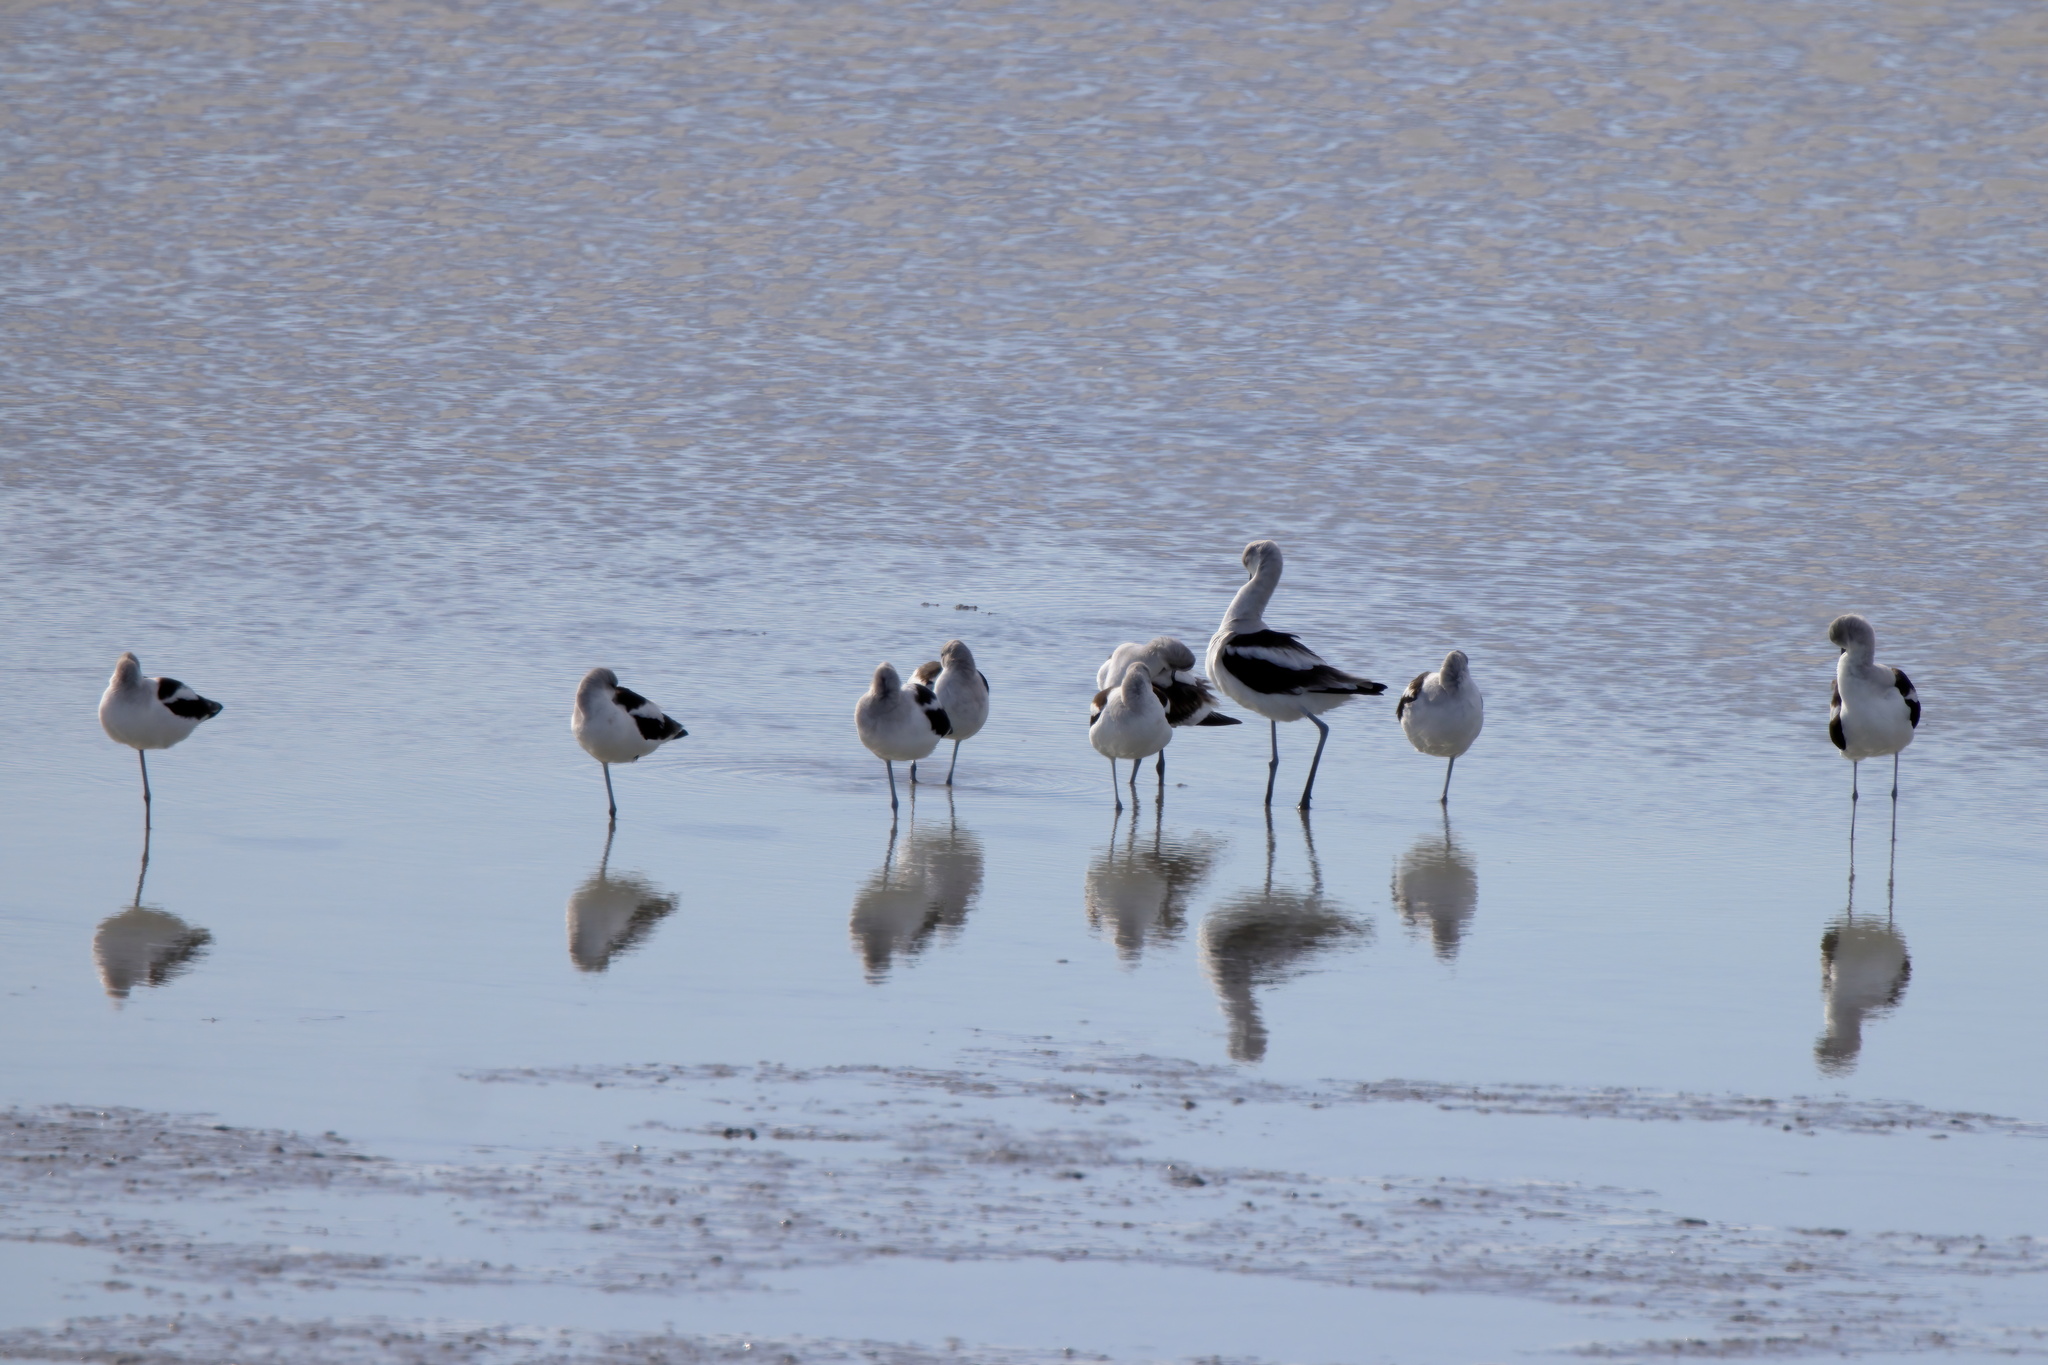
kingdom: Animalia
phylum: Chordata
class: Aves
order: Charadriiformes
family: Recurvirostridae
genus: Recurvirostra
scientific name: Recurvirostra americana
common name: American avocet
